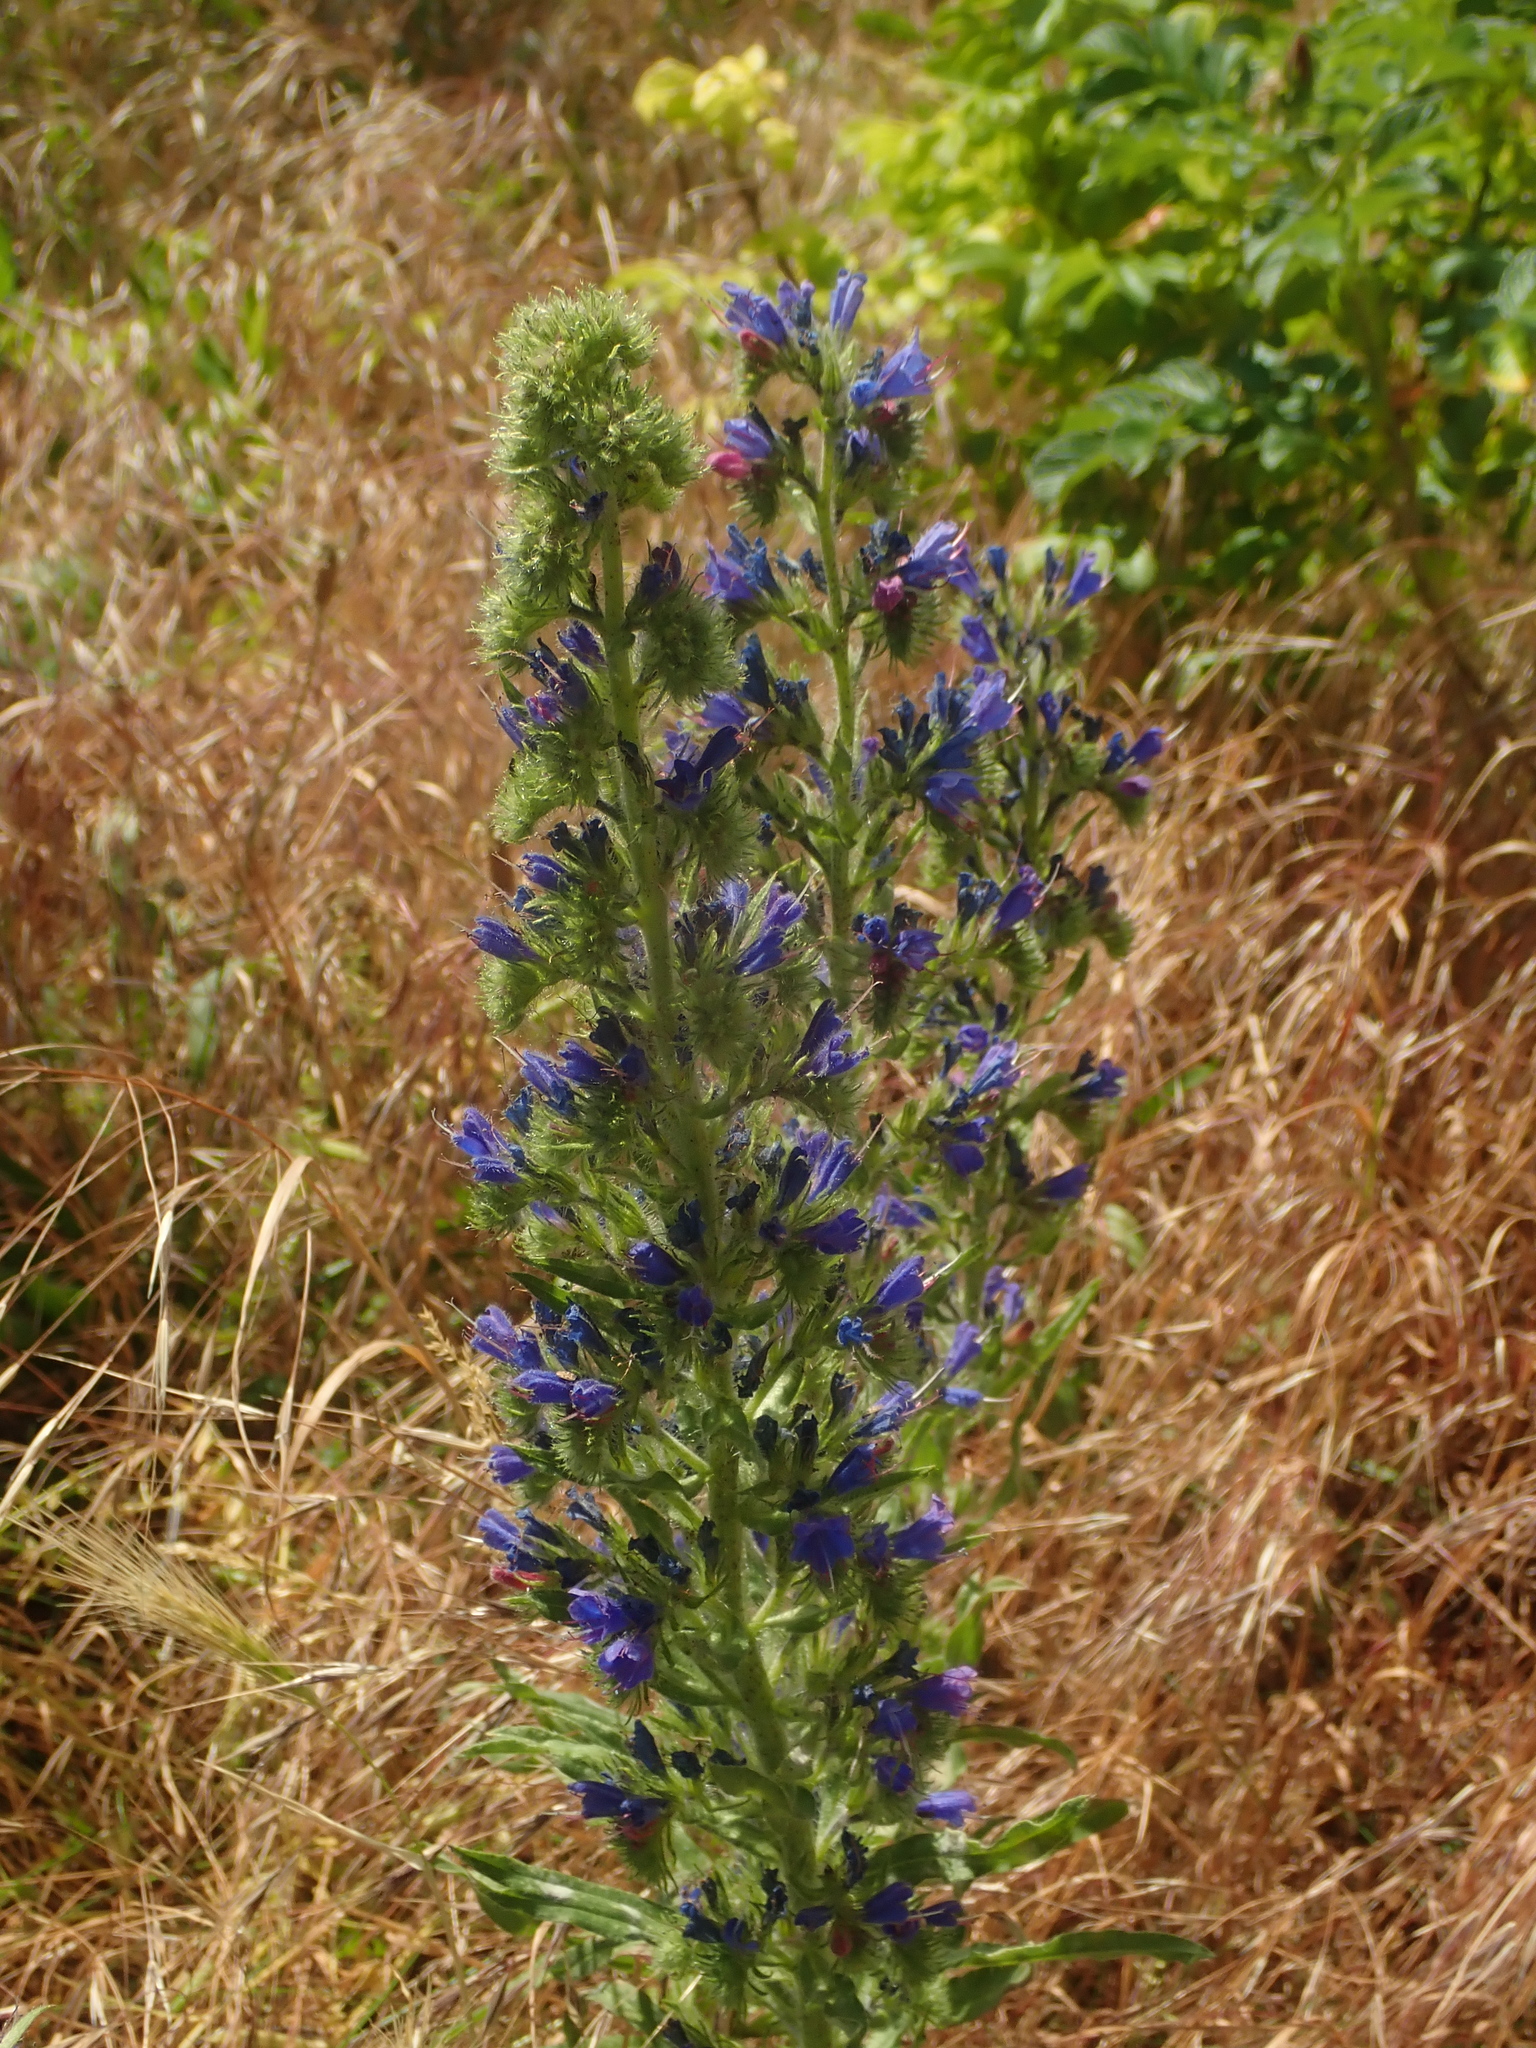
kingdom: Plantae
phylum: Tracheophyta
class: Magnoliopsida
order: Boraginales
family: Boraginaceae
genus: Echium
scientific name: Echium vulgare
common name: Common viper's bugloss
